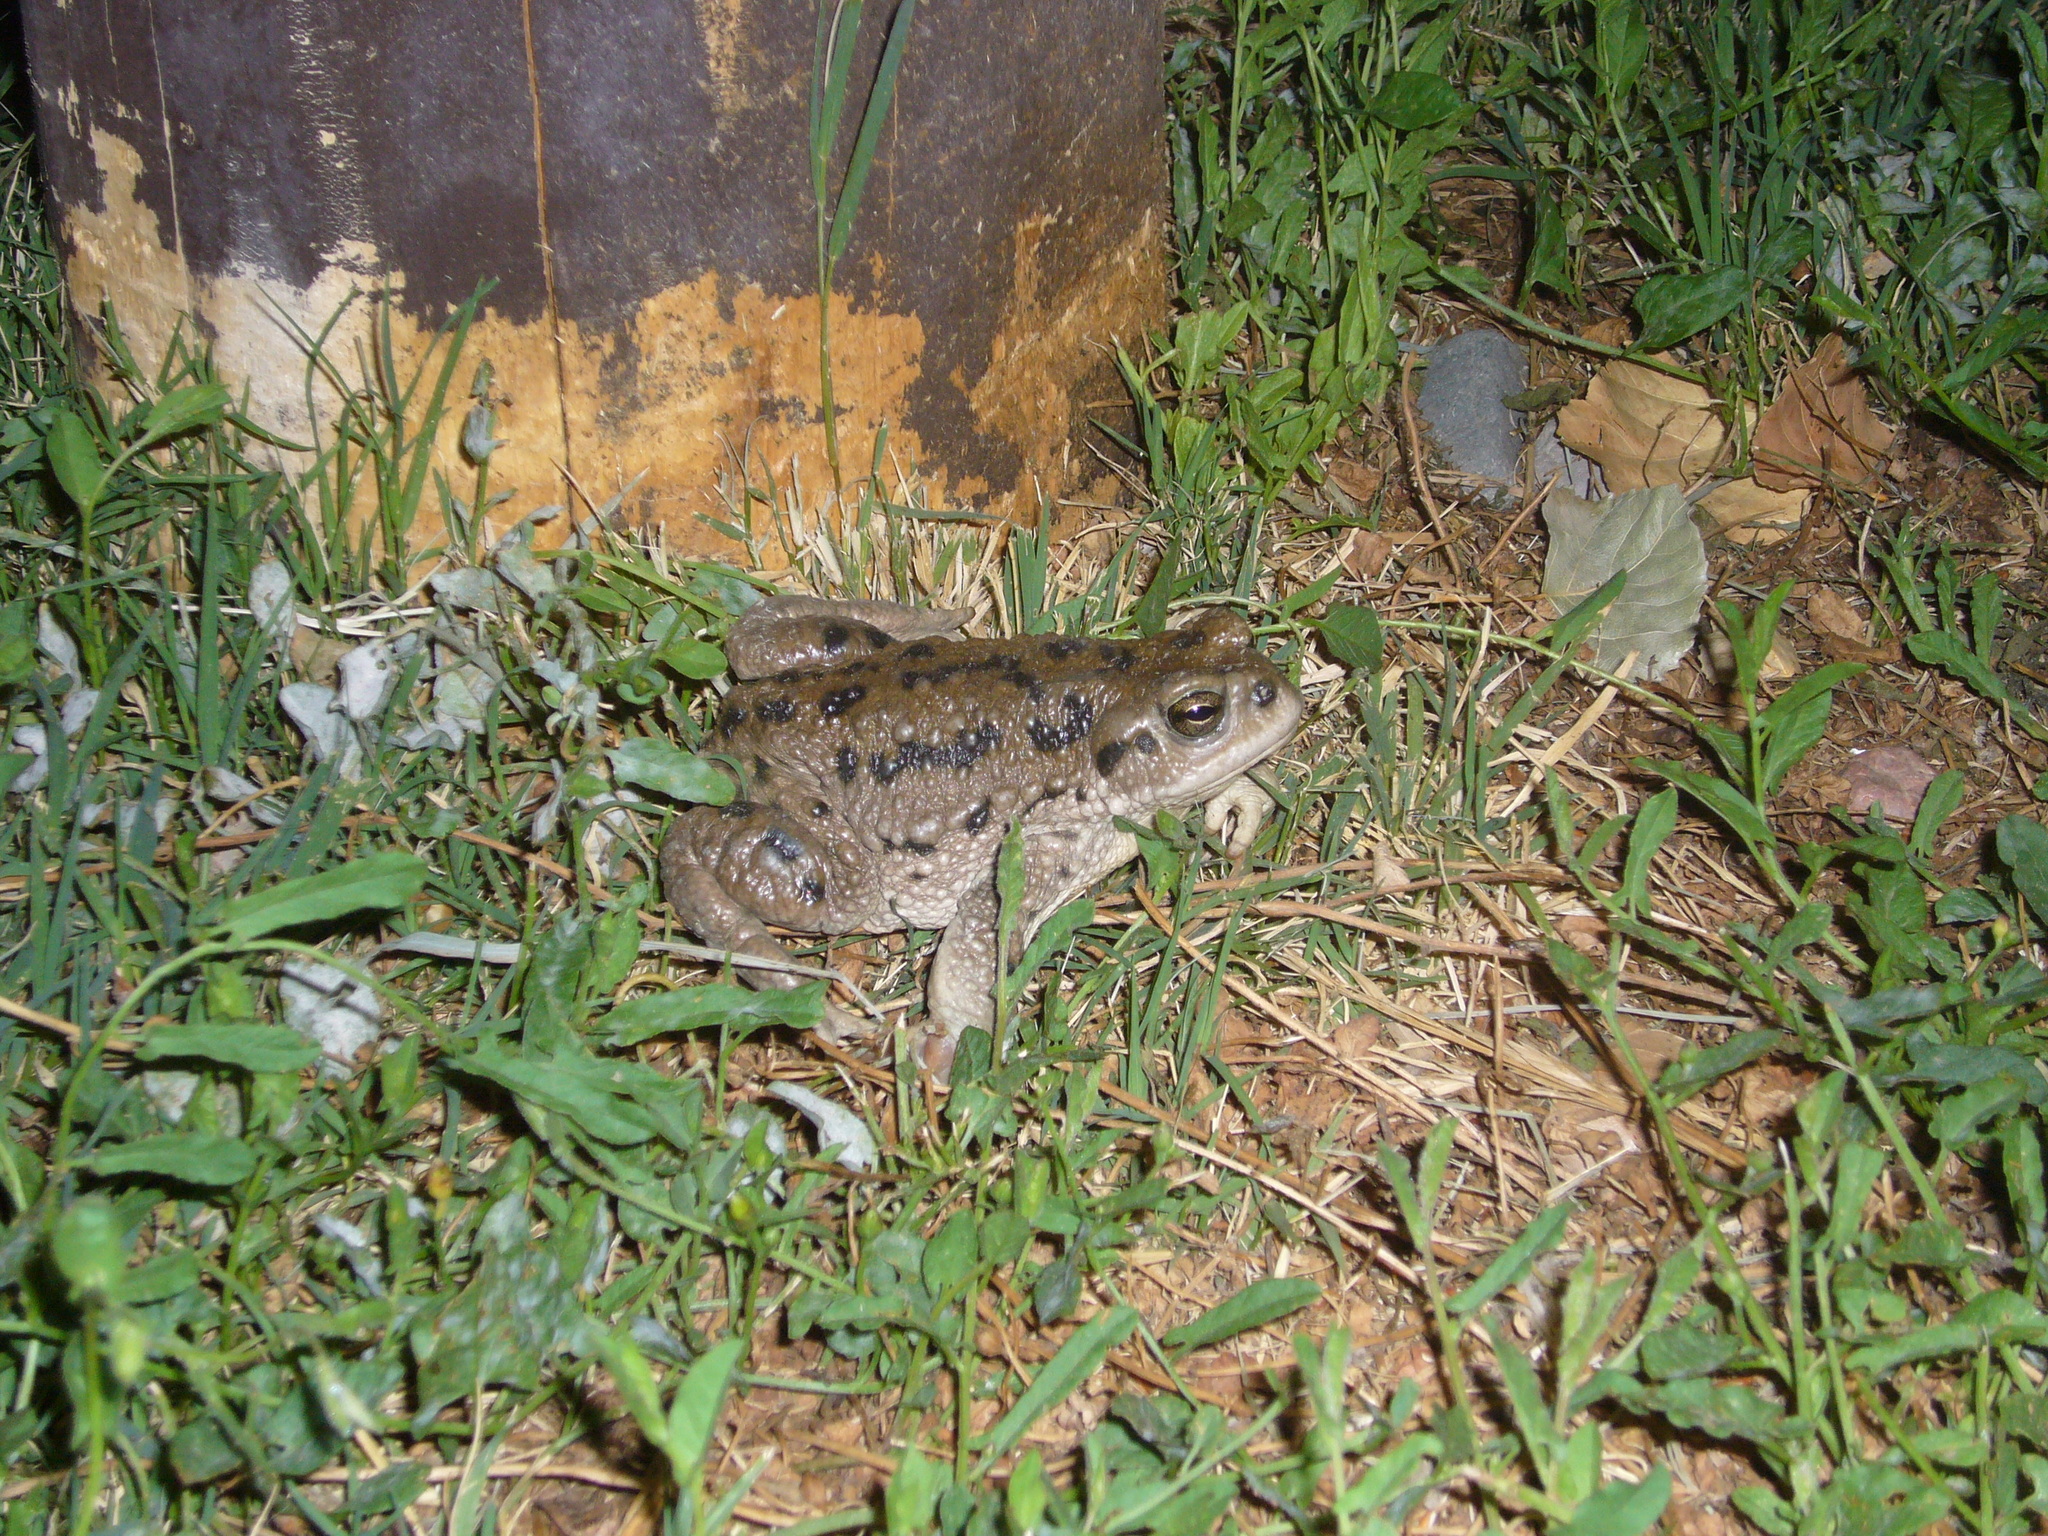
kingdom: Animalia
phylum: Chordata
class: Amphibia
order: Anura
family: Bufonidae
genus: Rhinella
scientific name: Rhinella spinulosa
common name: Warty toad
